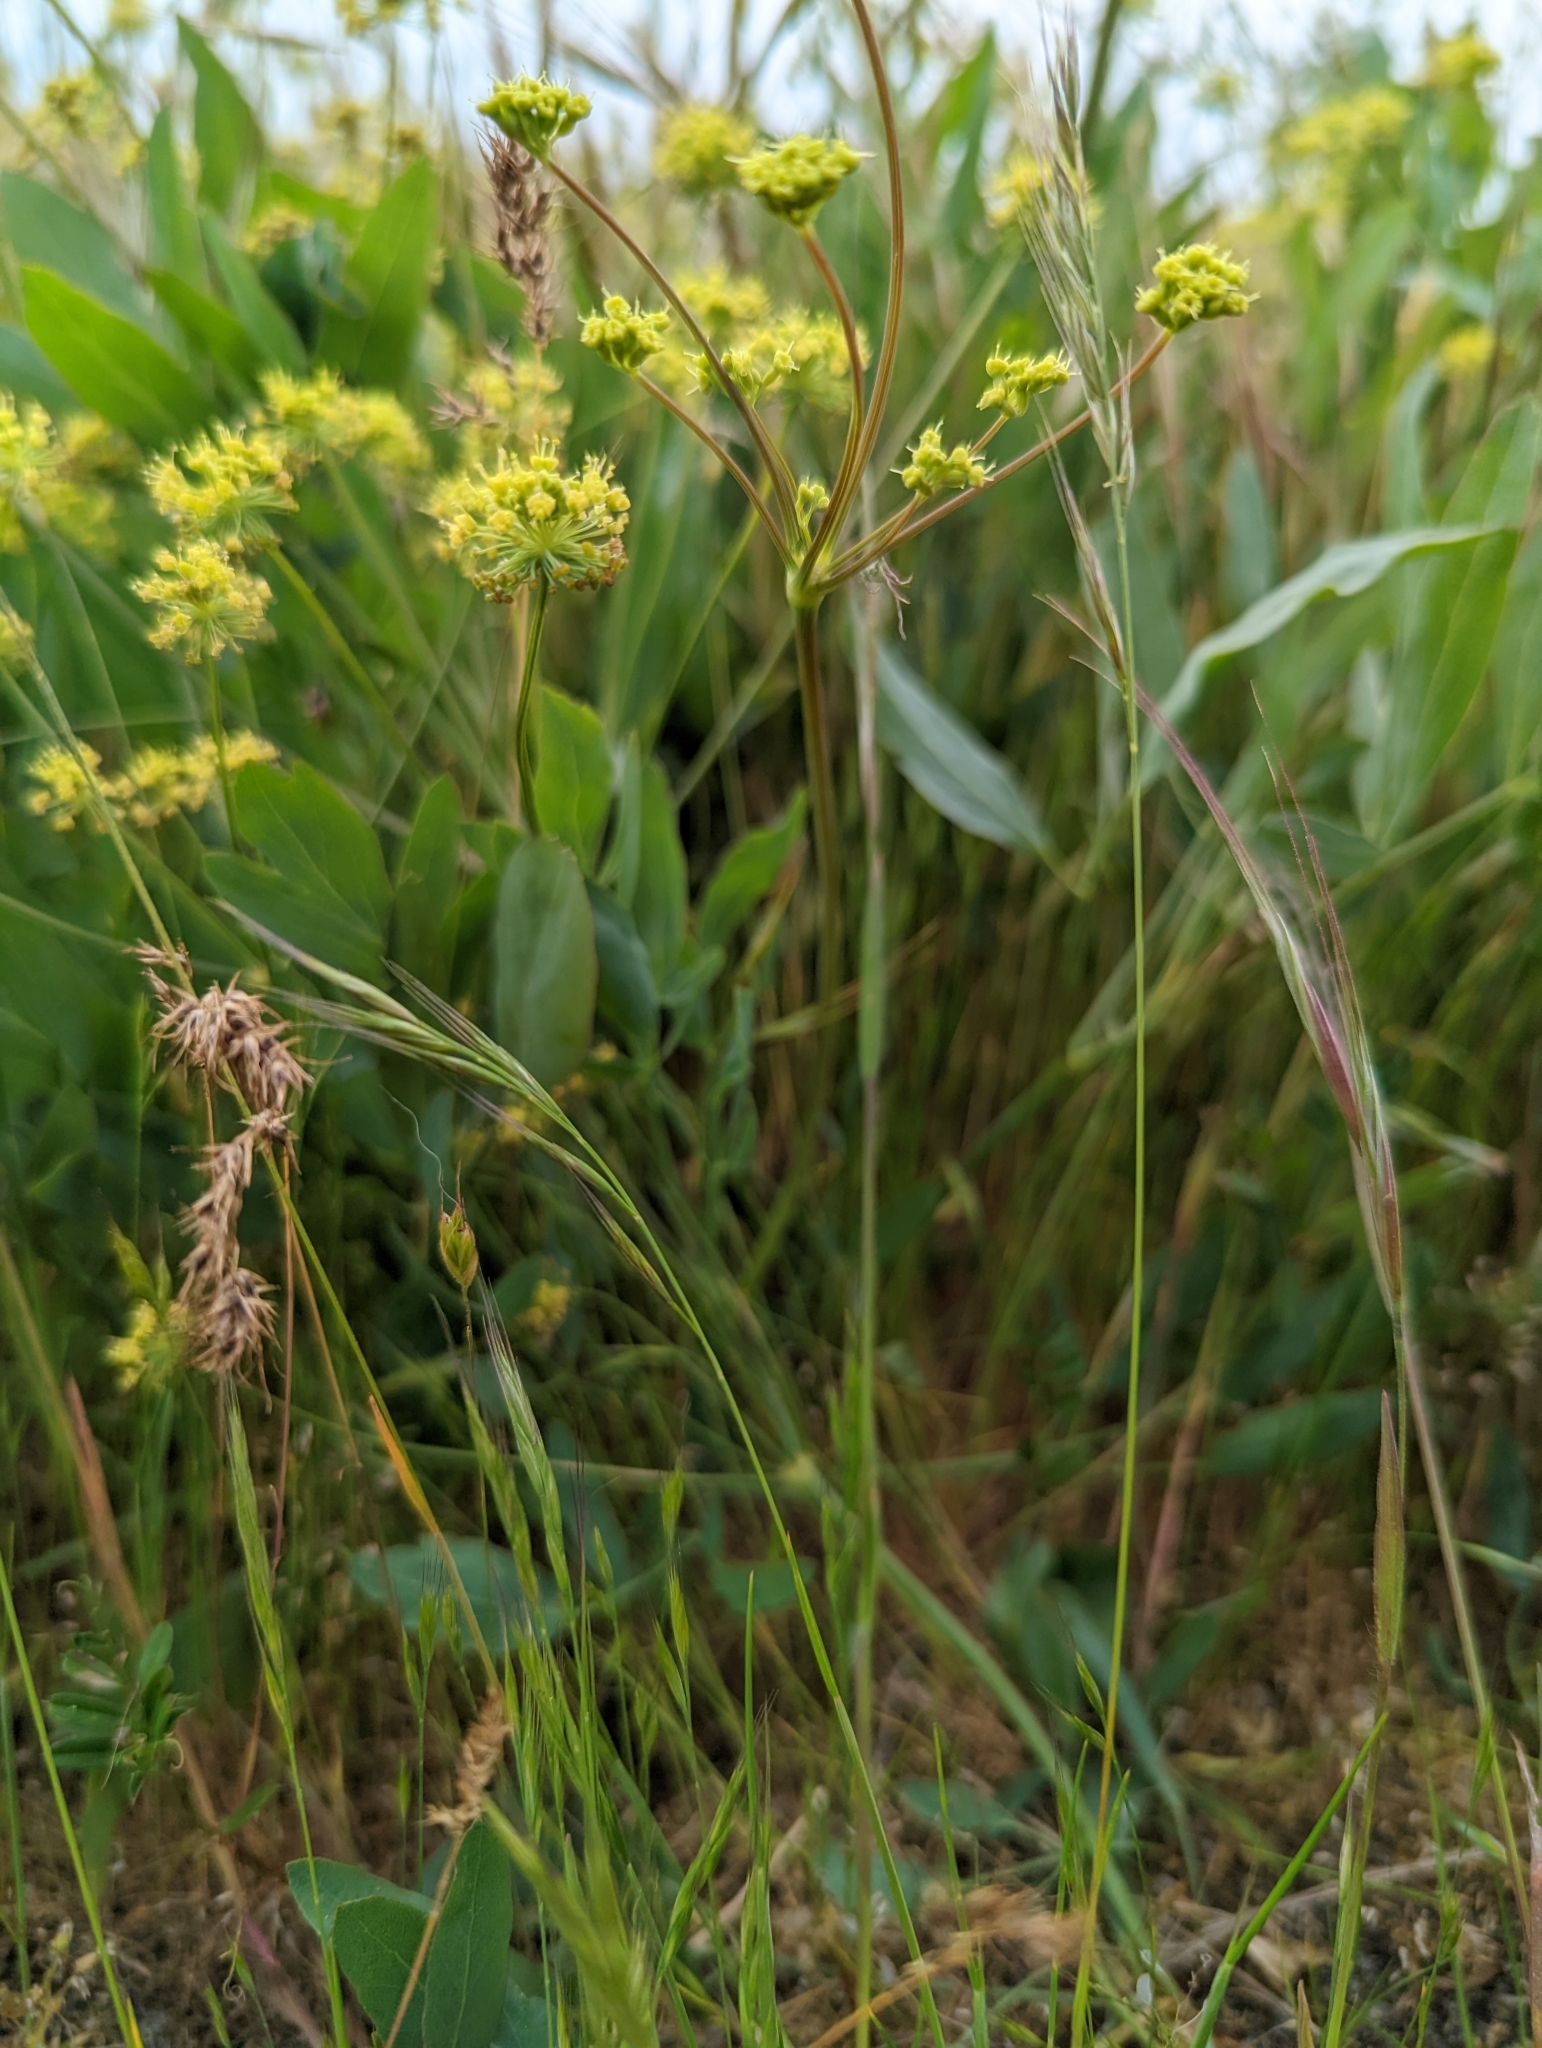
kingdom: Plantae
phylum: Tracheophyta
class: Magnoliopsida
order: Apiales
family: Apiaceae
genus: Lomatium
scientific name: Lomatium nudicaule
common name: Pestle lomatium
